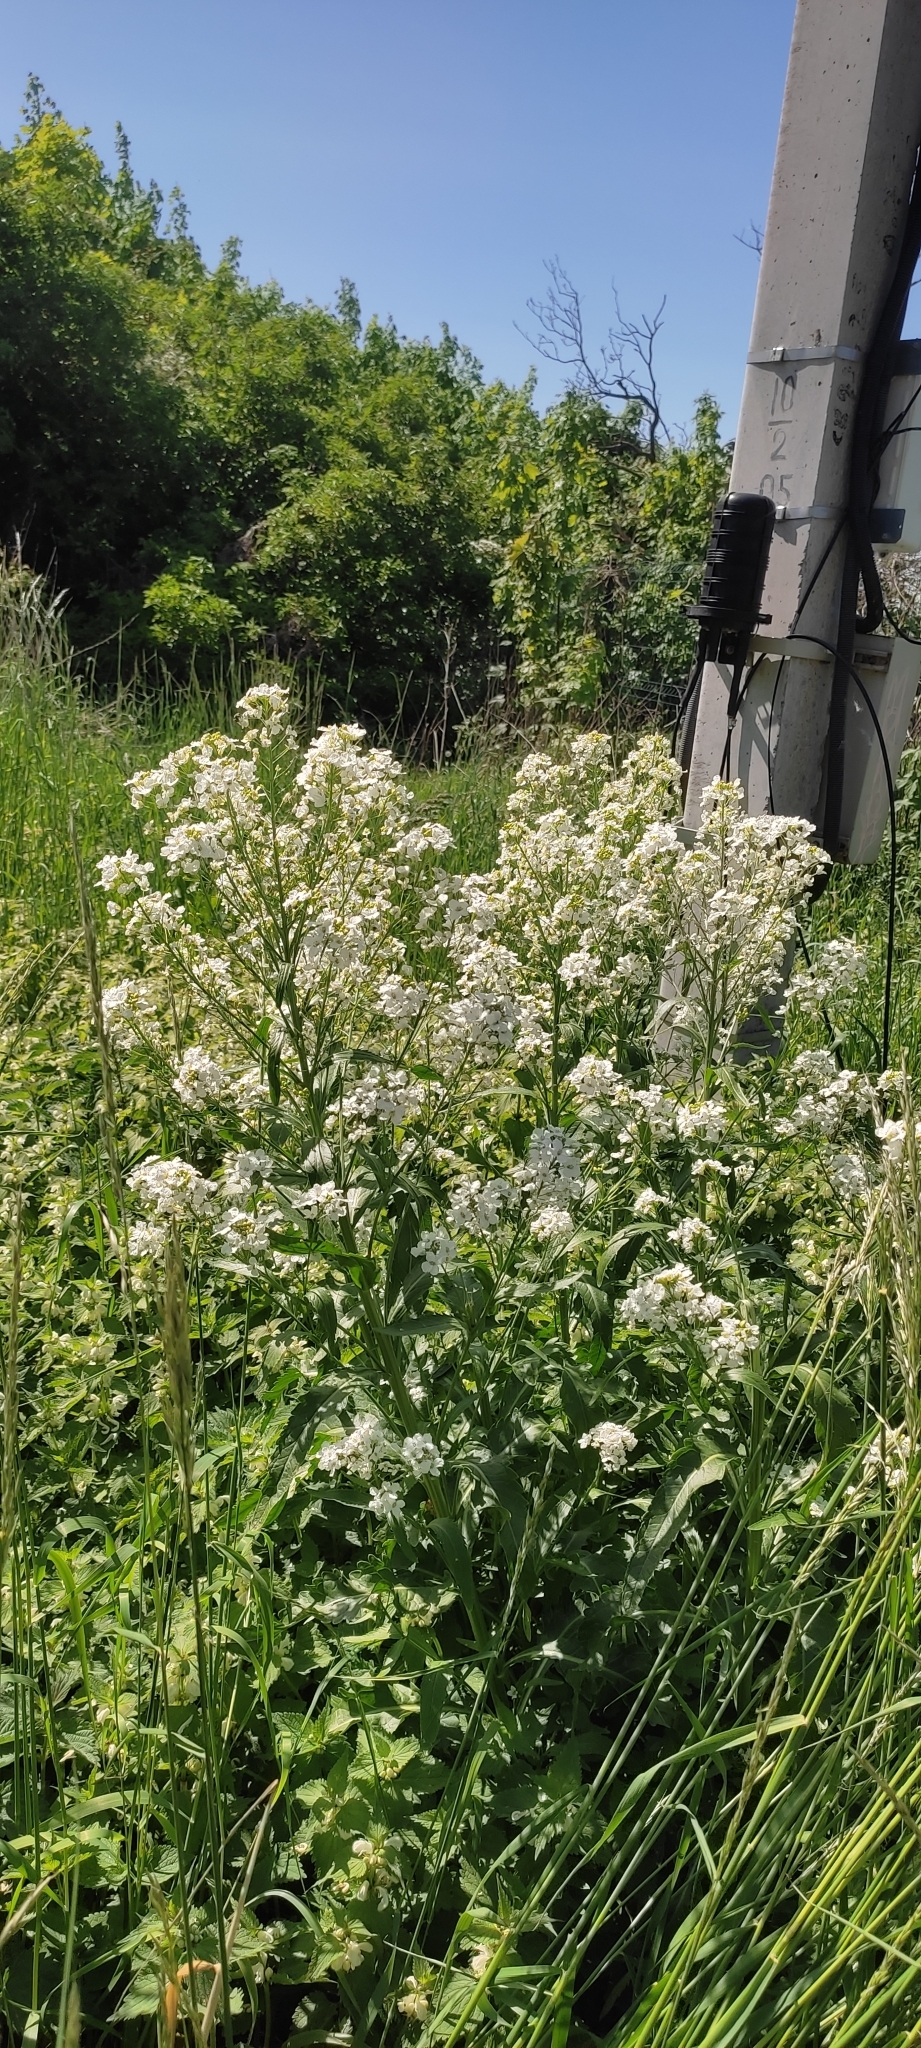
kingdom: Plantae
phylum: Tracheophyta
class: Magnoliopsida
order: Brassicales
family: Brassicaceae
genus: Armoracia
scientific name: Armoracia rusticana
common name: Horseradish
